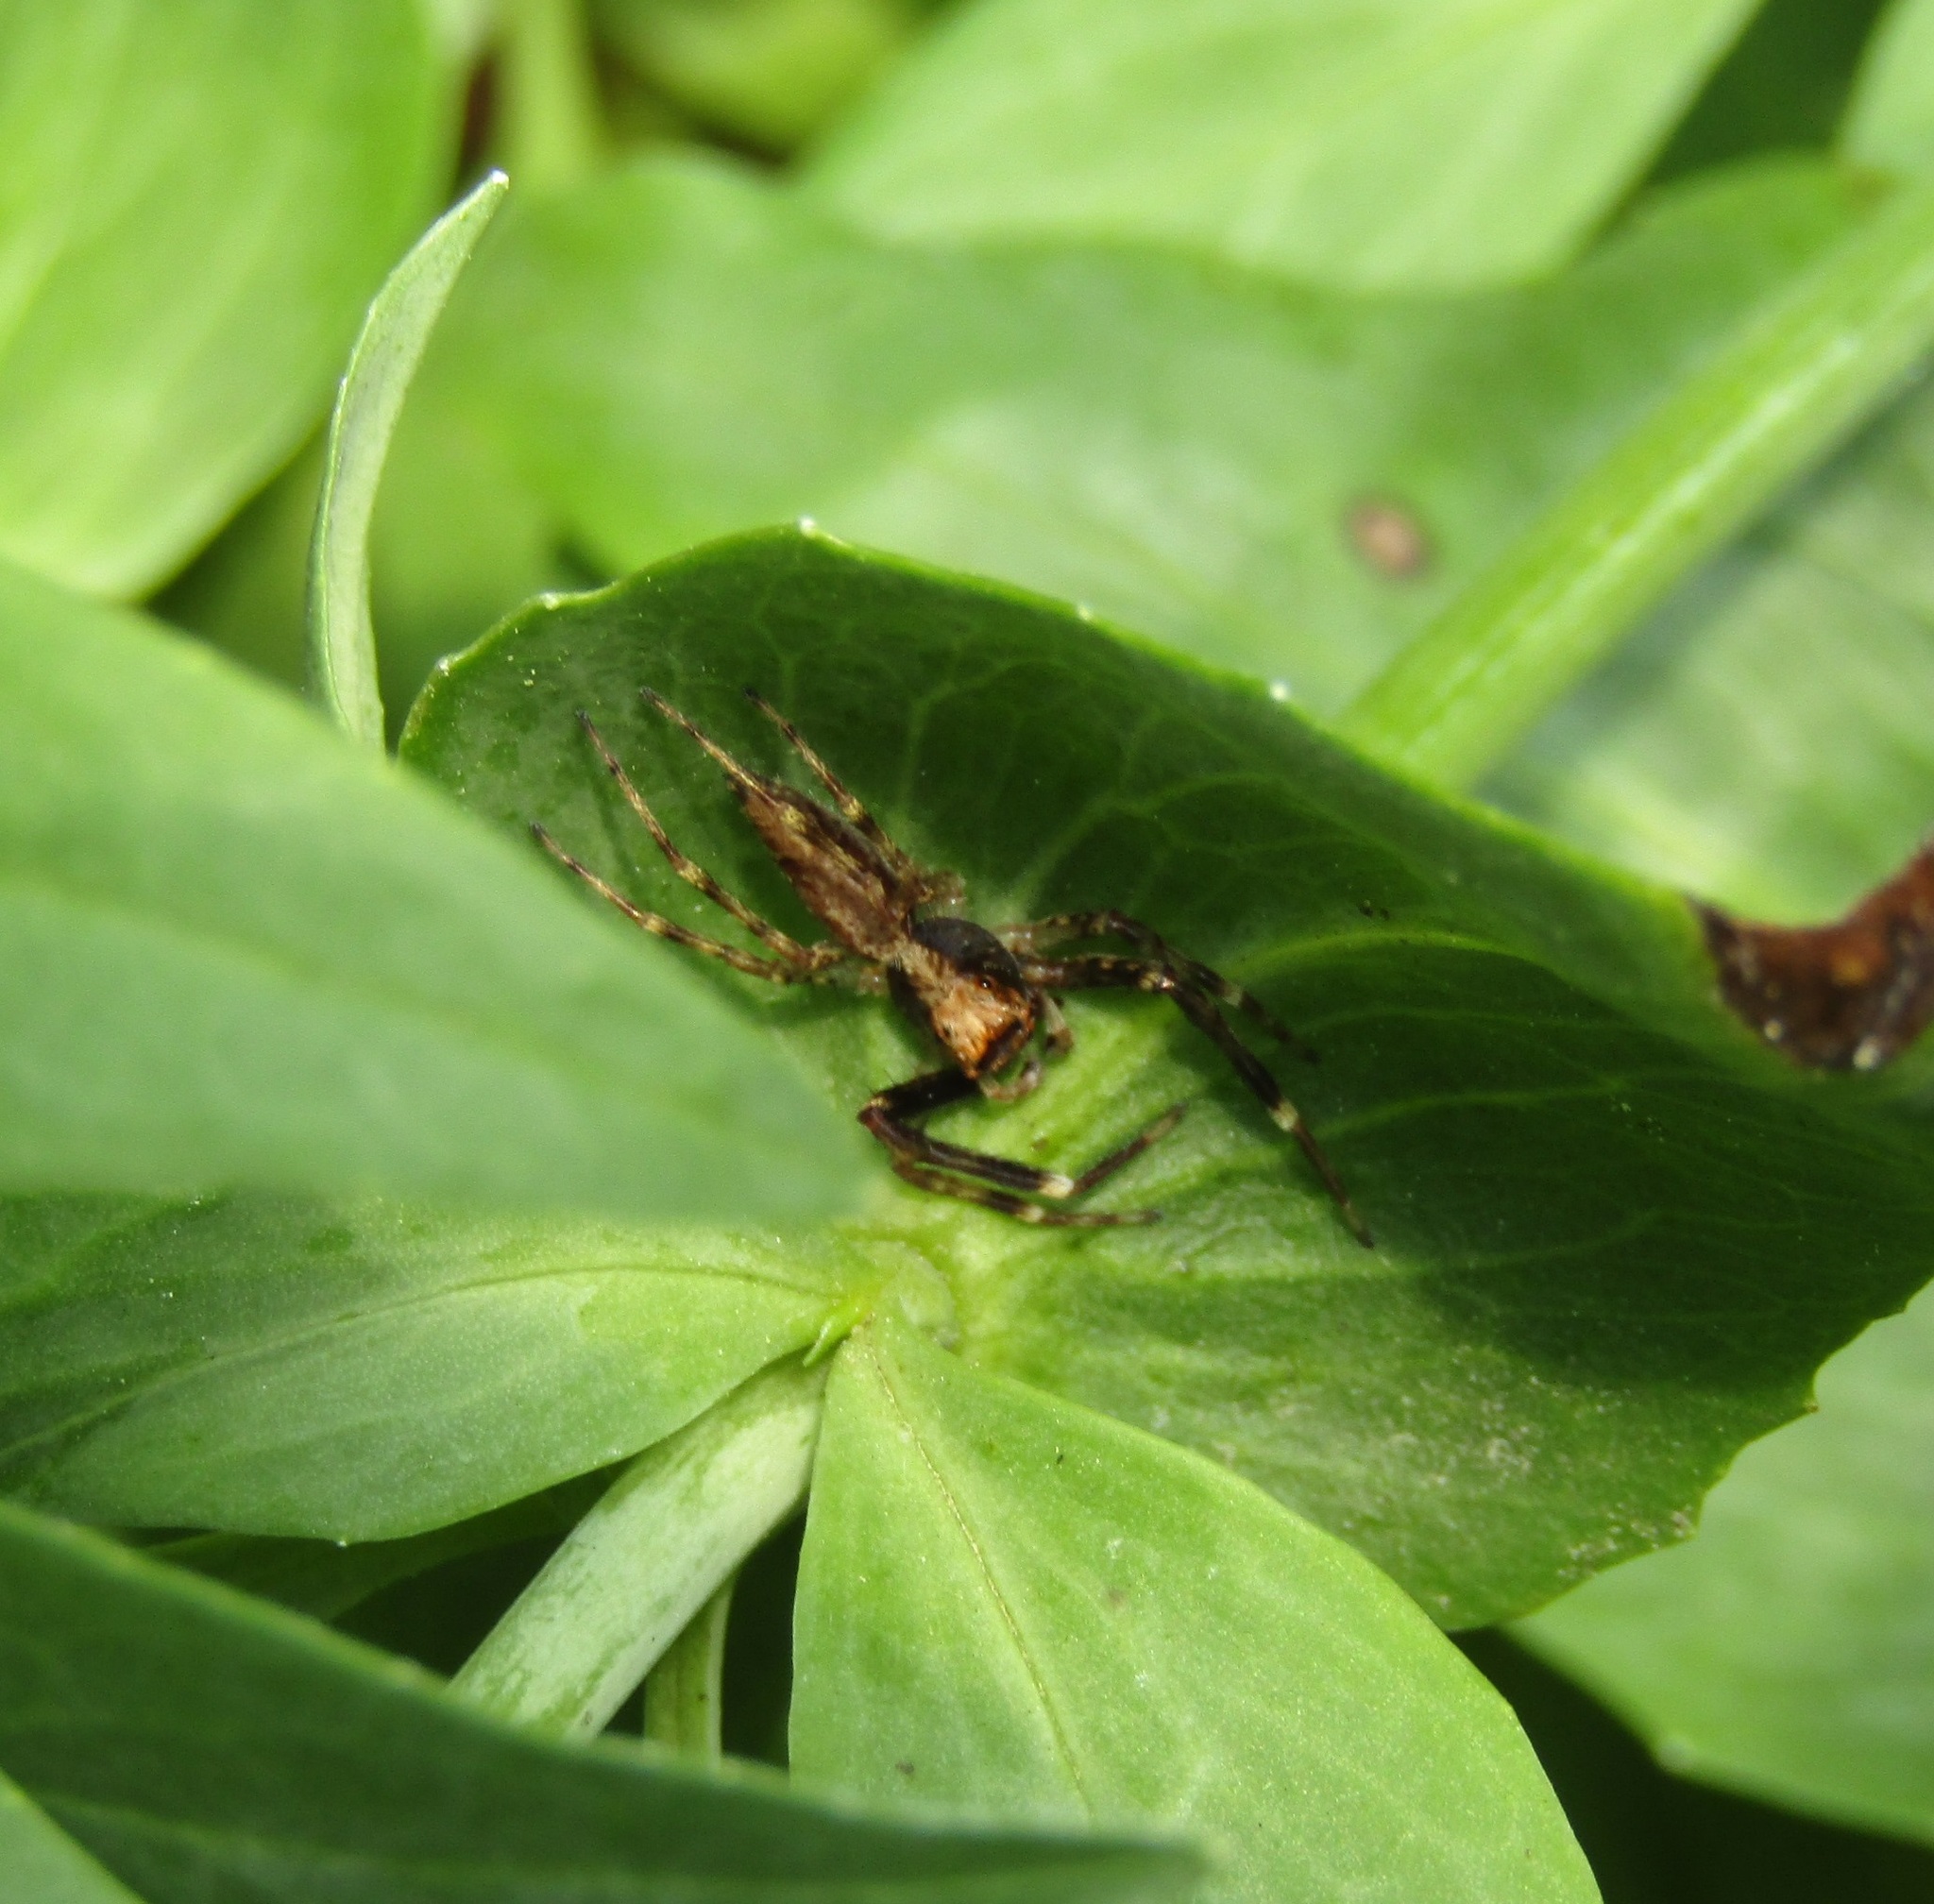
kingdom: Animalia
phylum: Arthropoda
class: Arachnida
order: Araneae
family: Salticidae
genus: Helpis
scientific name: Helpis minitabunda
